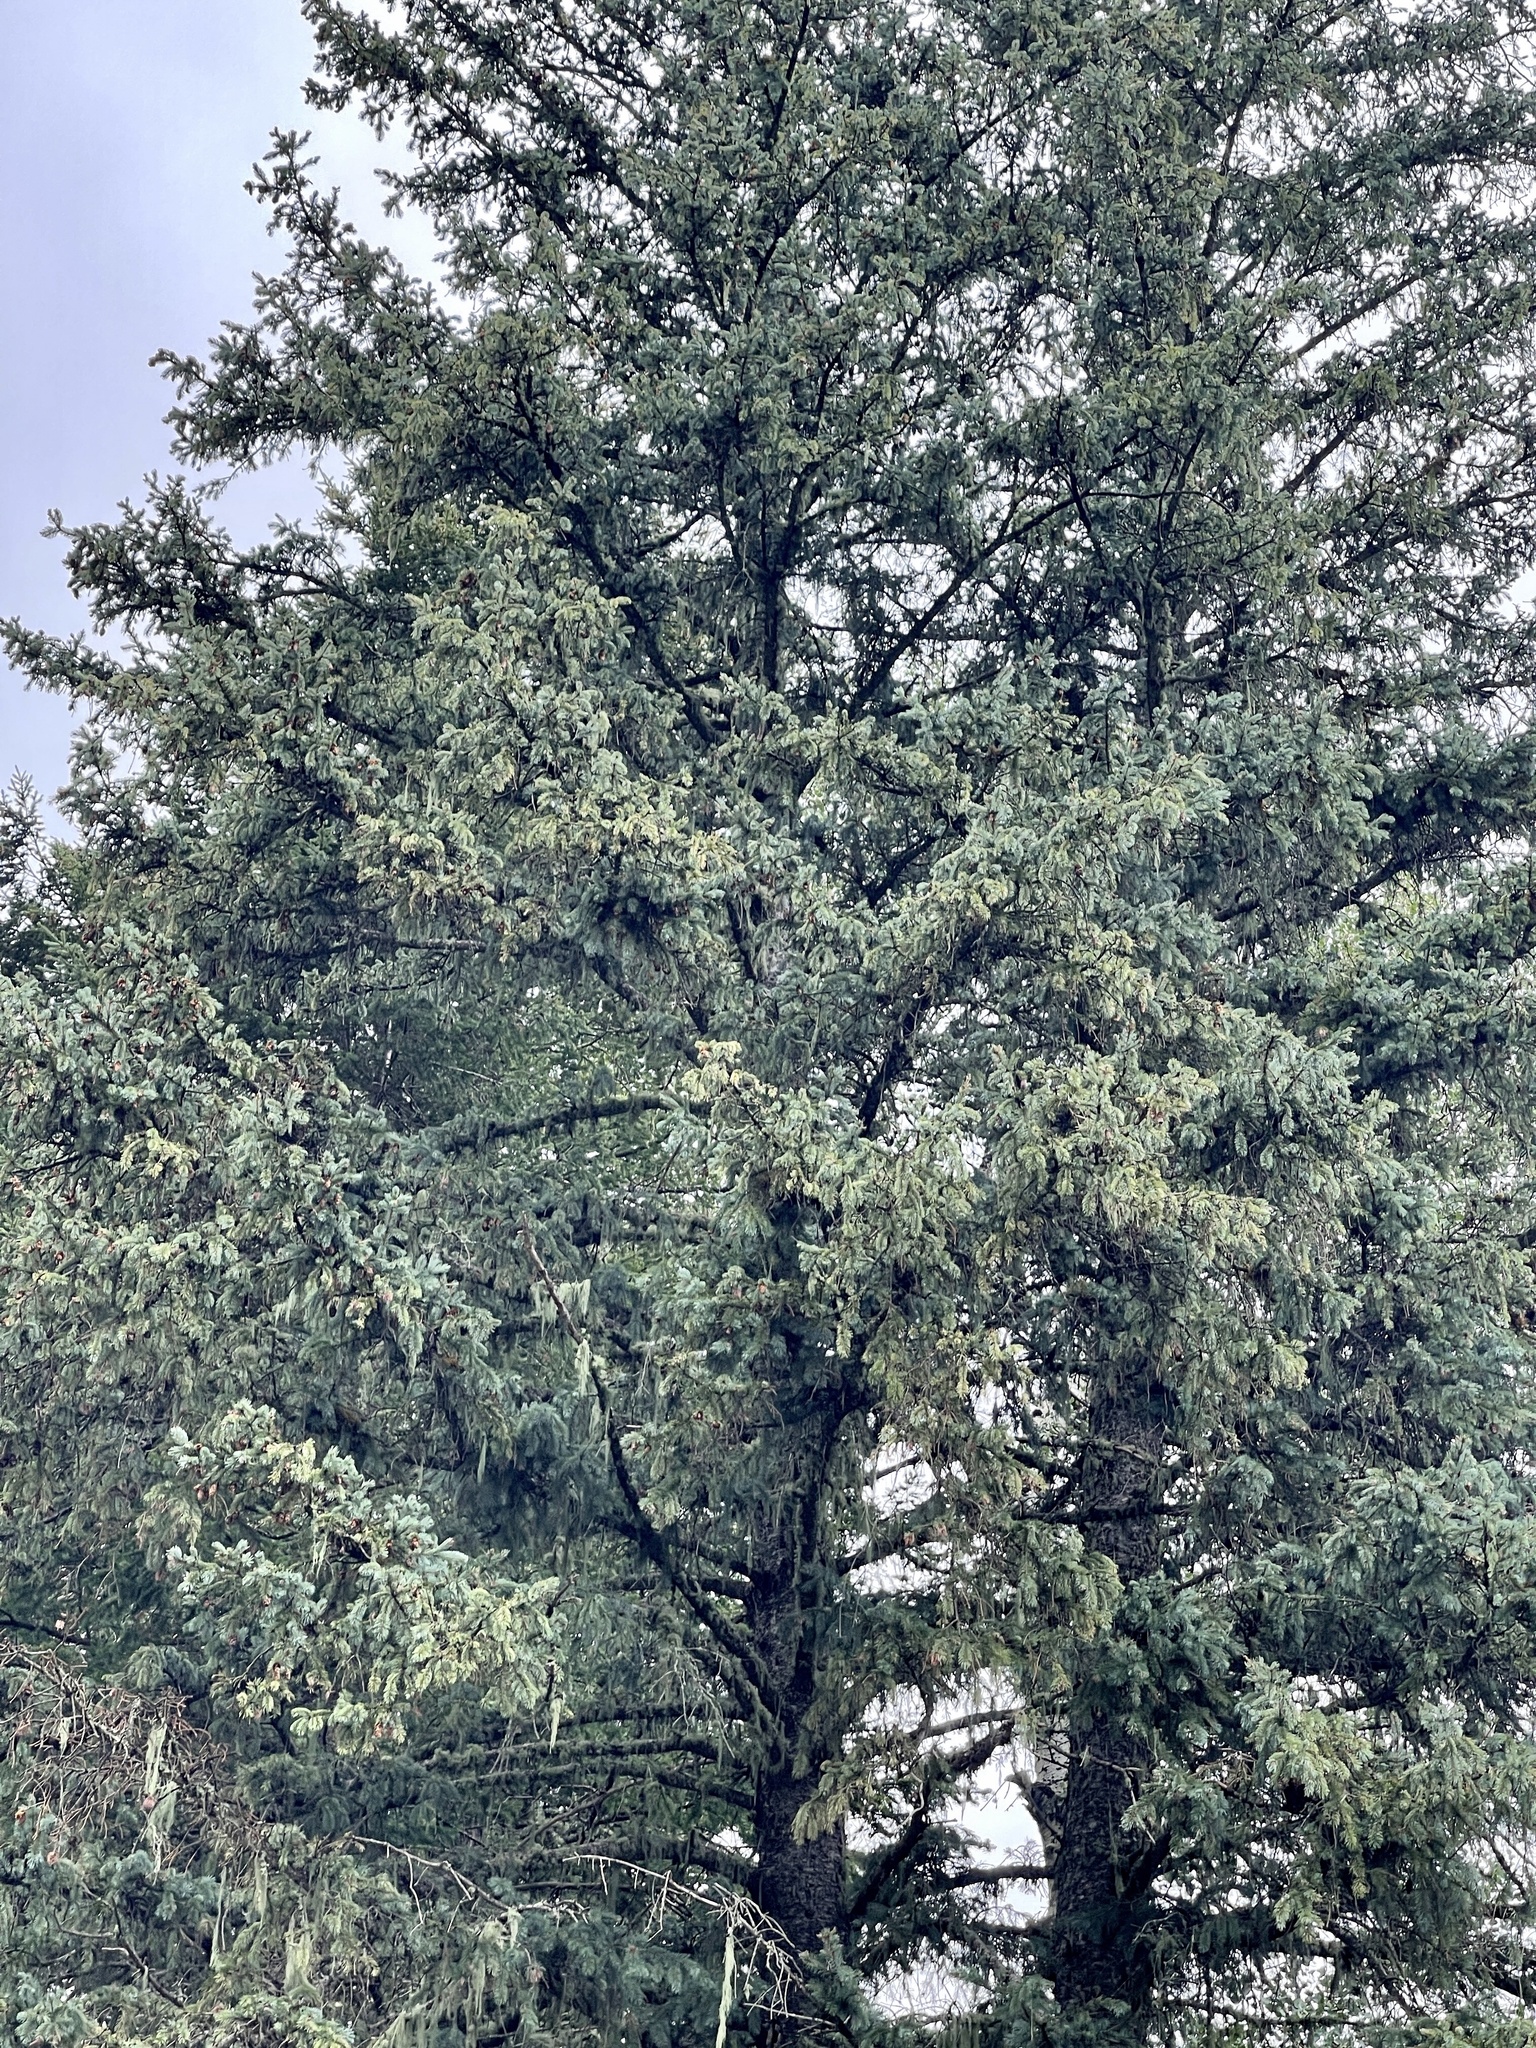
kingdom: Plantae
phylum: Tracheophyta
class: Pinopsida
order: Pinales
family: Pinaceae
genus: Picea
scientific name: Picea engelmannii
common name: Engelmann spruce
